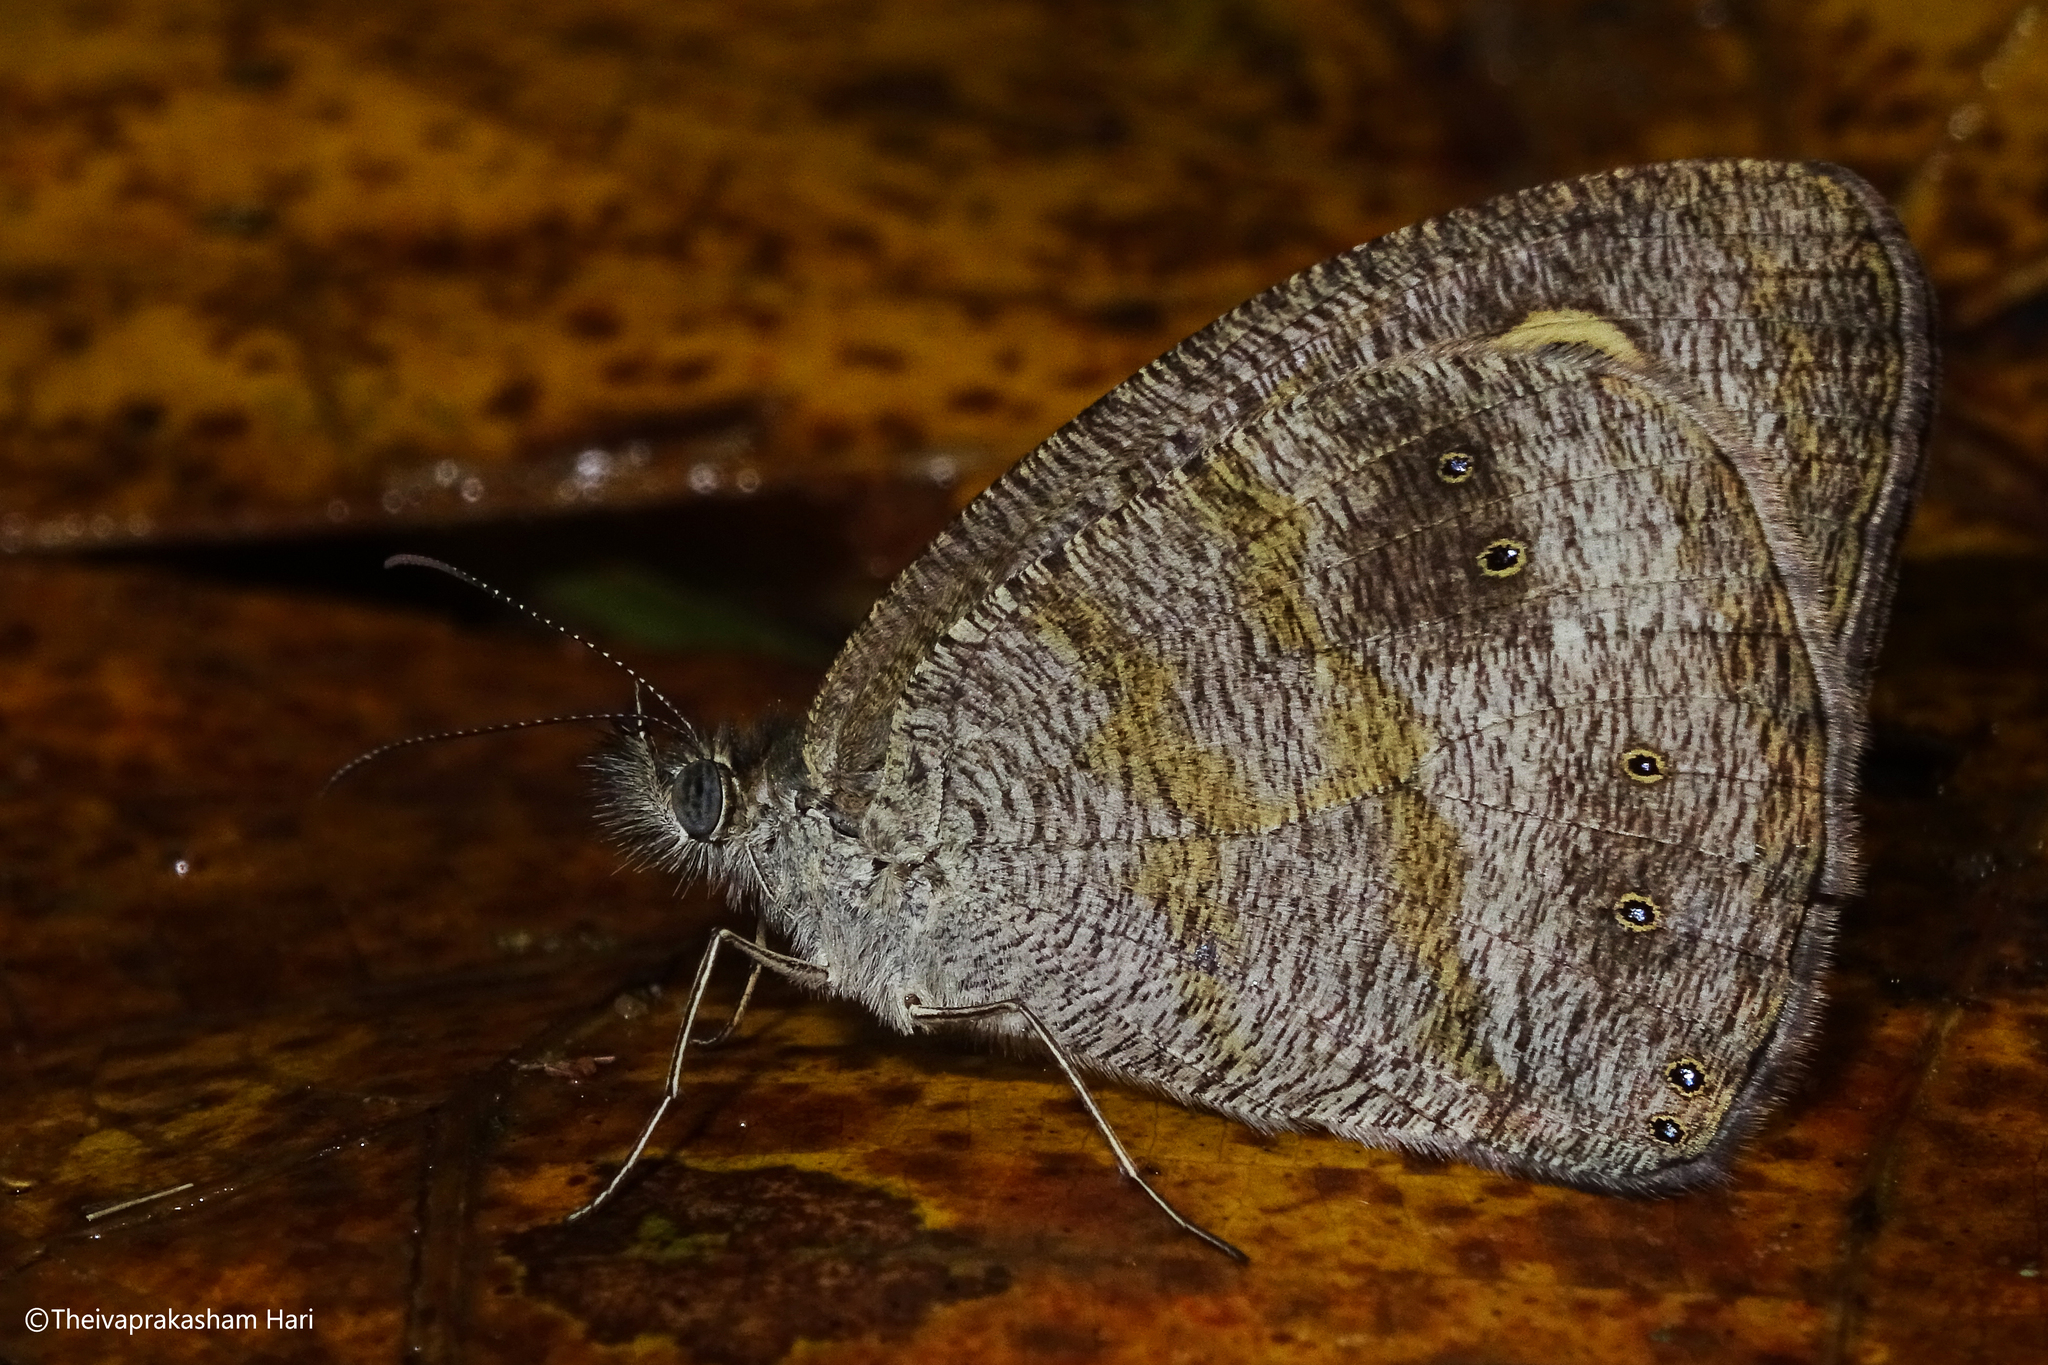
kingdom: Animalia
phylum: Arthropoda
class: Insecta
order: Lepidoptera
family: Nymphalidae
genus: Ypthima
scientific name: Ypthima baldus
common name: Common five-ring
